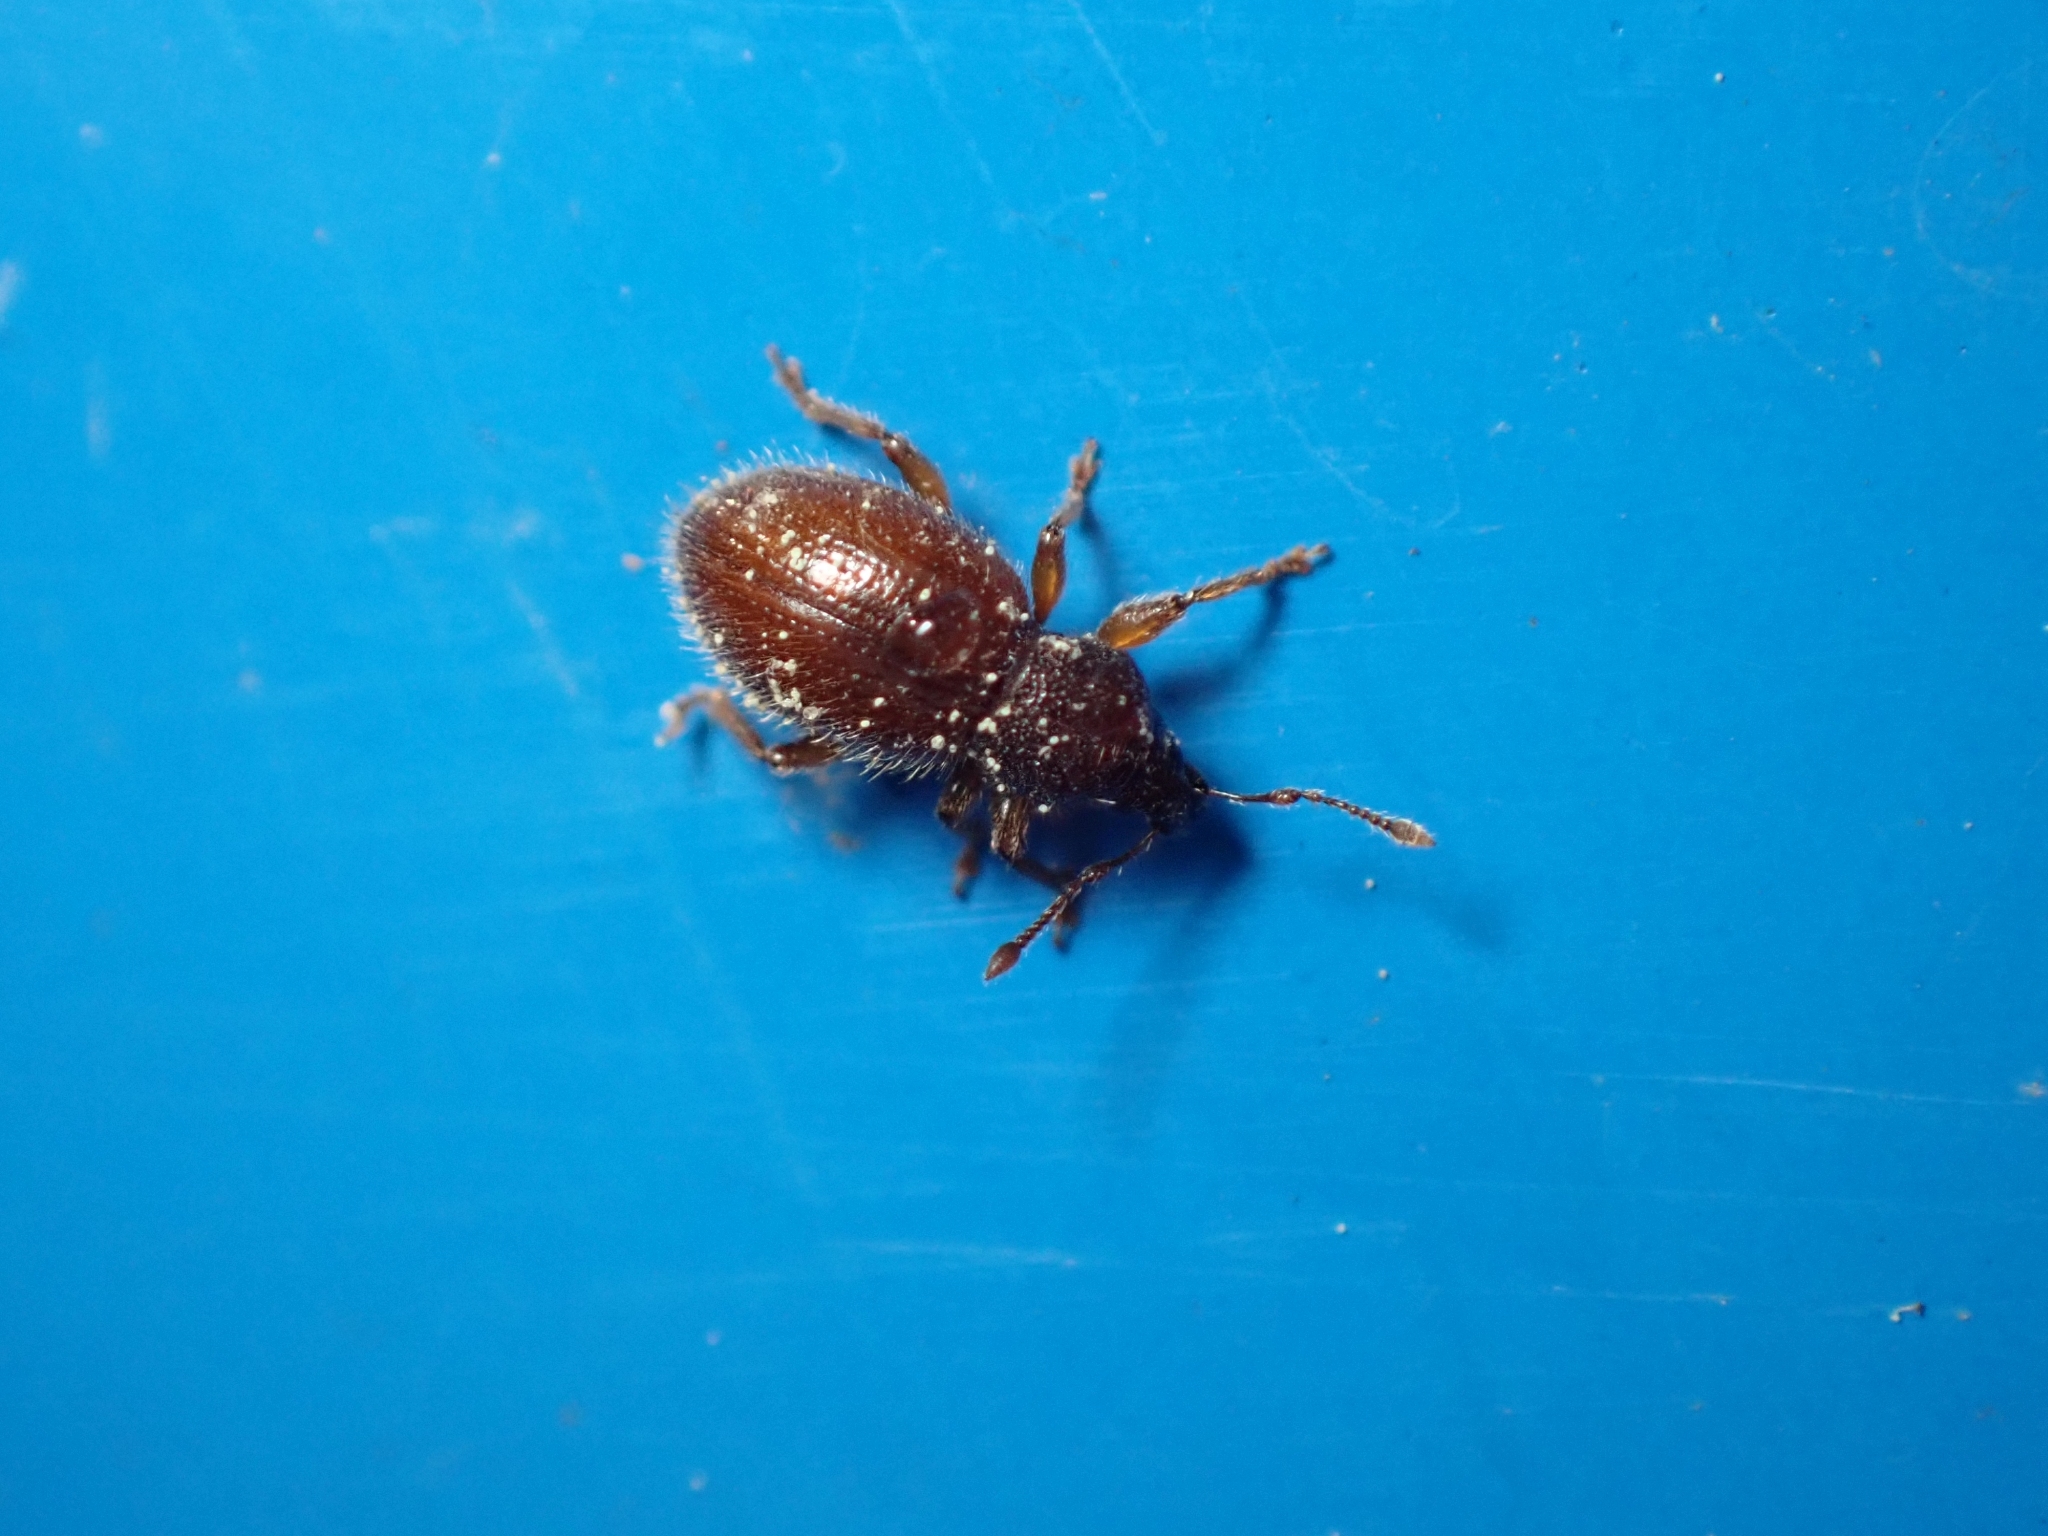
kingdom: Animalia
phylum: Arthropoda
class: Insecta
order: Coleoptera
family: Curculionidae
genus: Exomias
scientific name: Exomias pellucidus
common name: Hairy spider weevil
